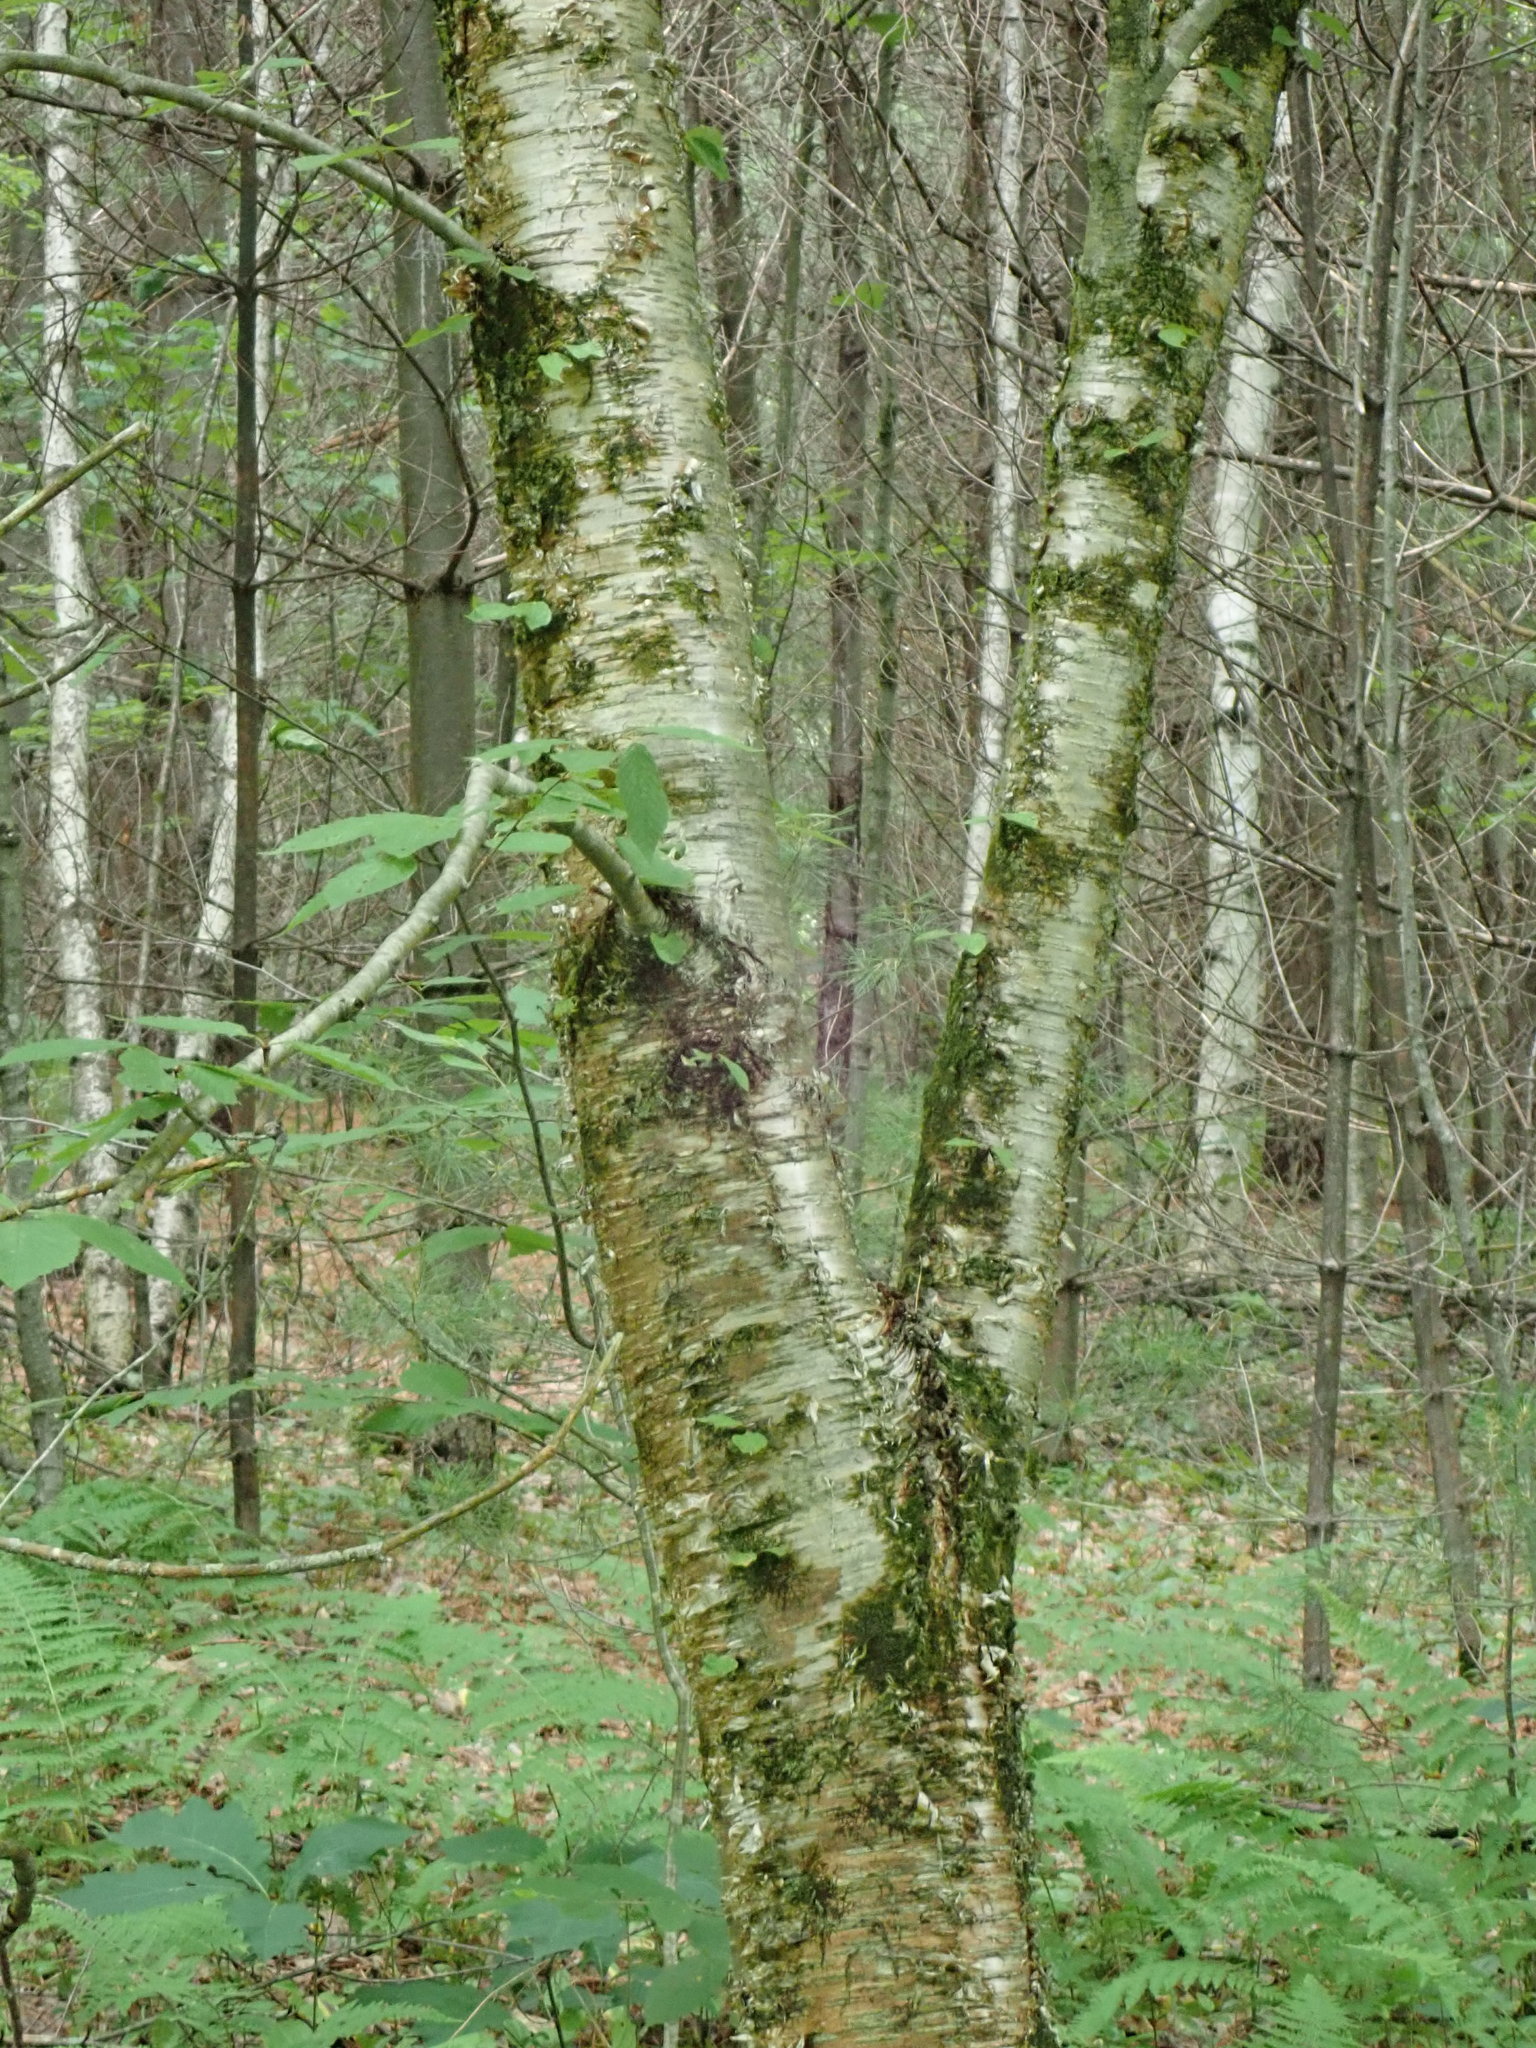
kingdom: Plantae
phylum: Tracheophyta
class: Magnoliopsida
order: Fagales
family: Betulaceae
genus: Betula
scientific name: Betula alleghaniensis
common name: Yellow birch
